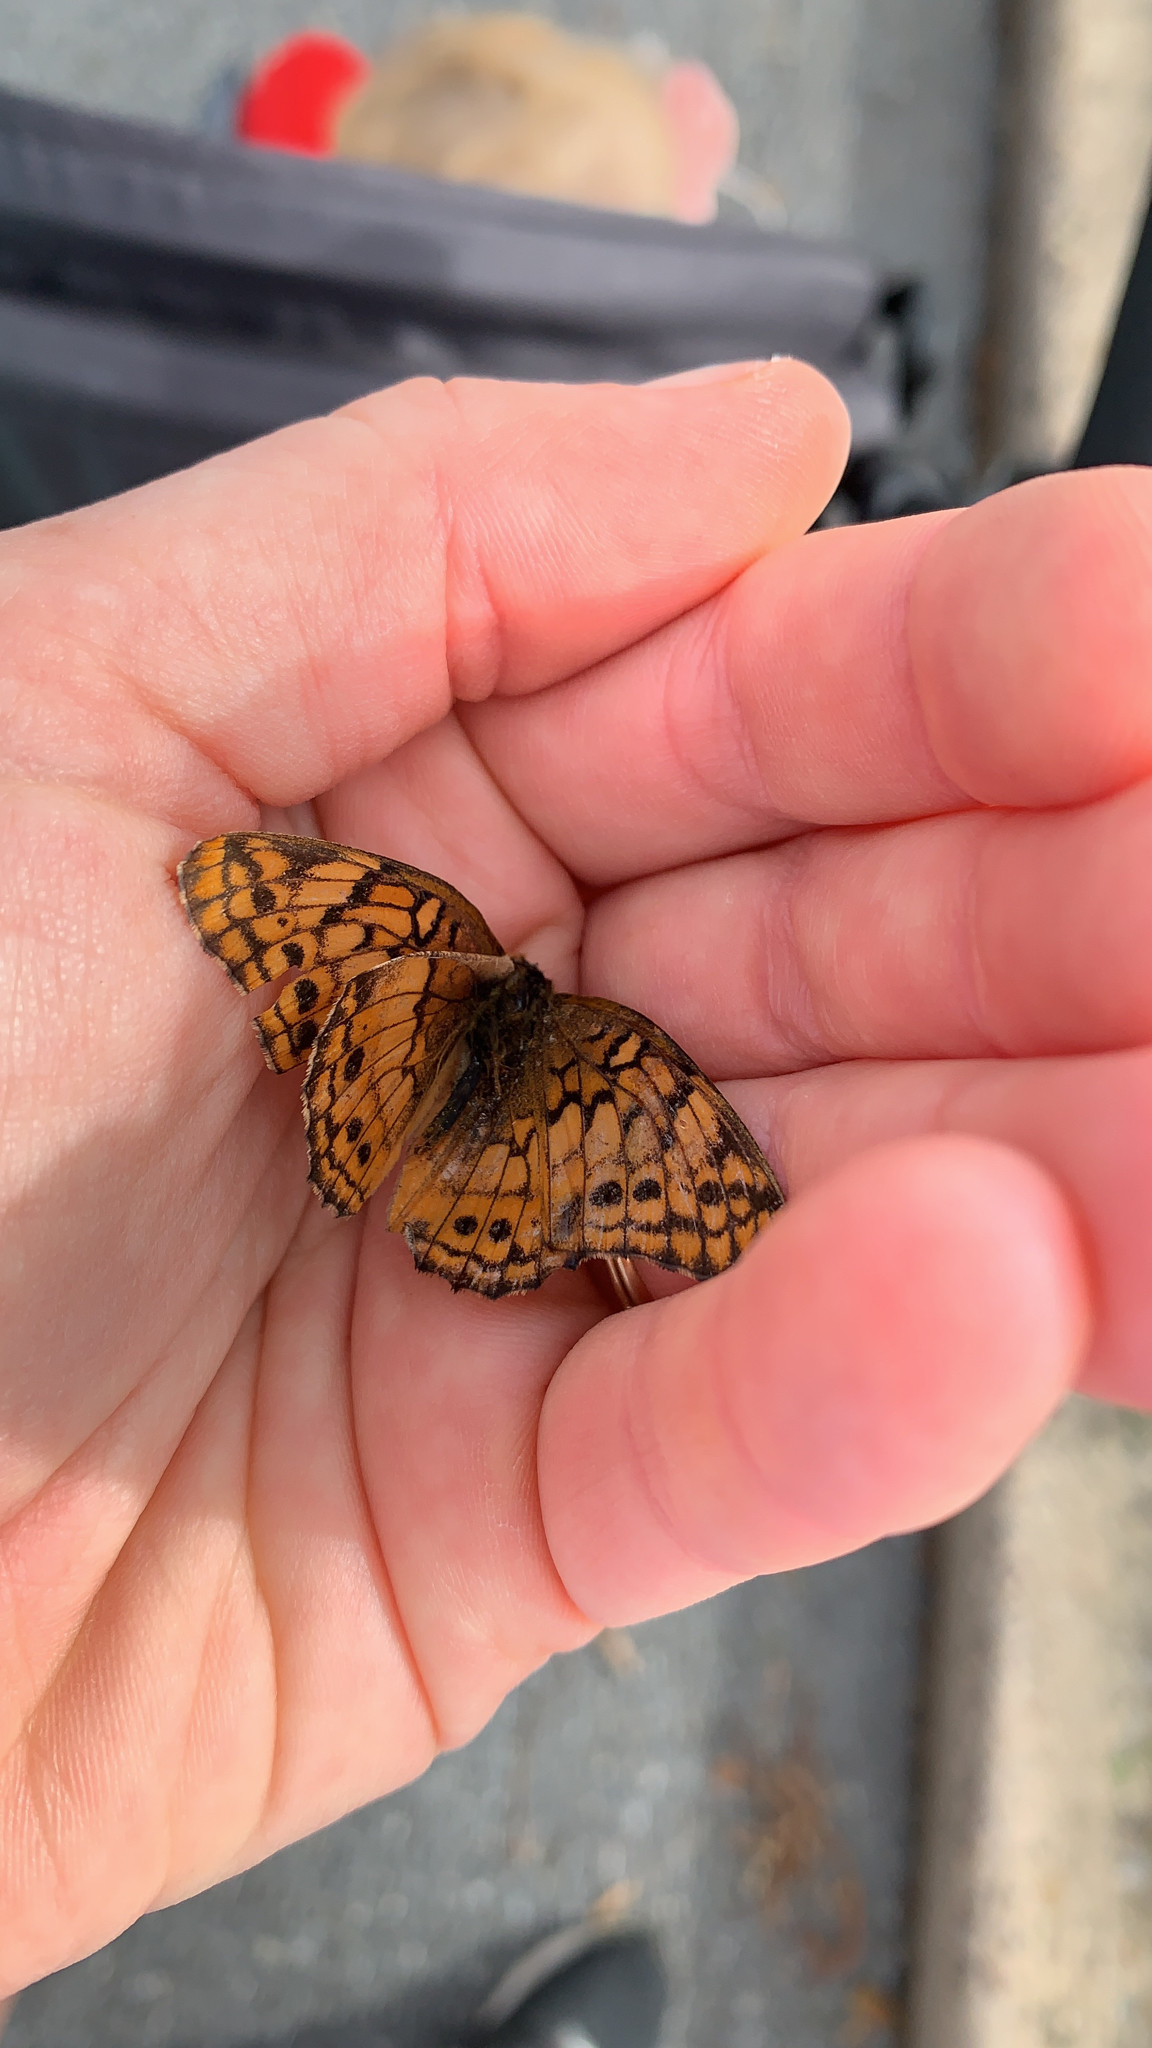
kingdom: Animalia
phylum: Arthropoda
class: Insecta
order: Lepidoptera
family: Nymphalidae
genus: Euptoieta
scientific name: Euptoieta claudia
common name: Variegated fritillary
